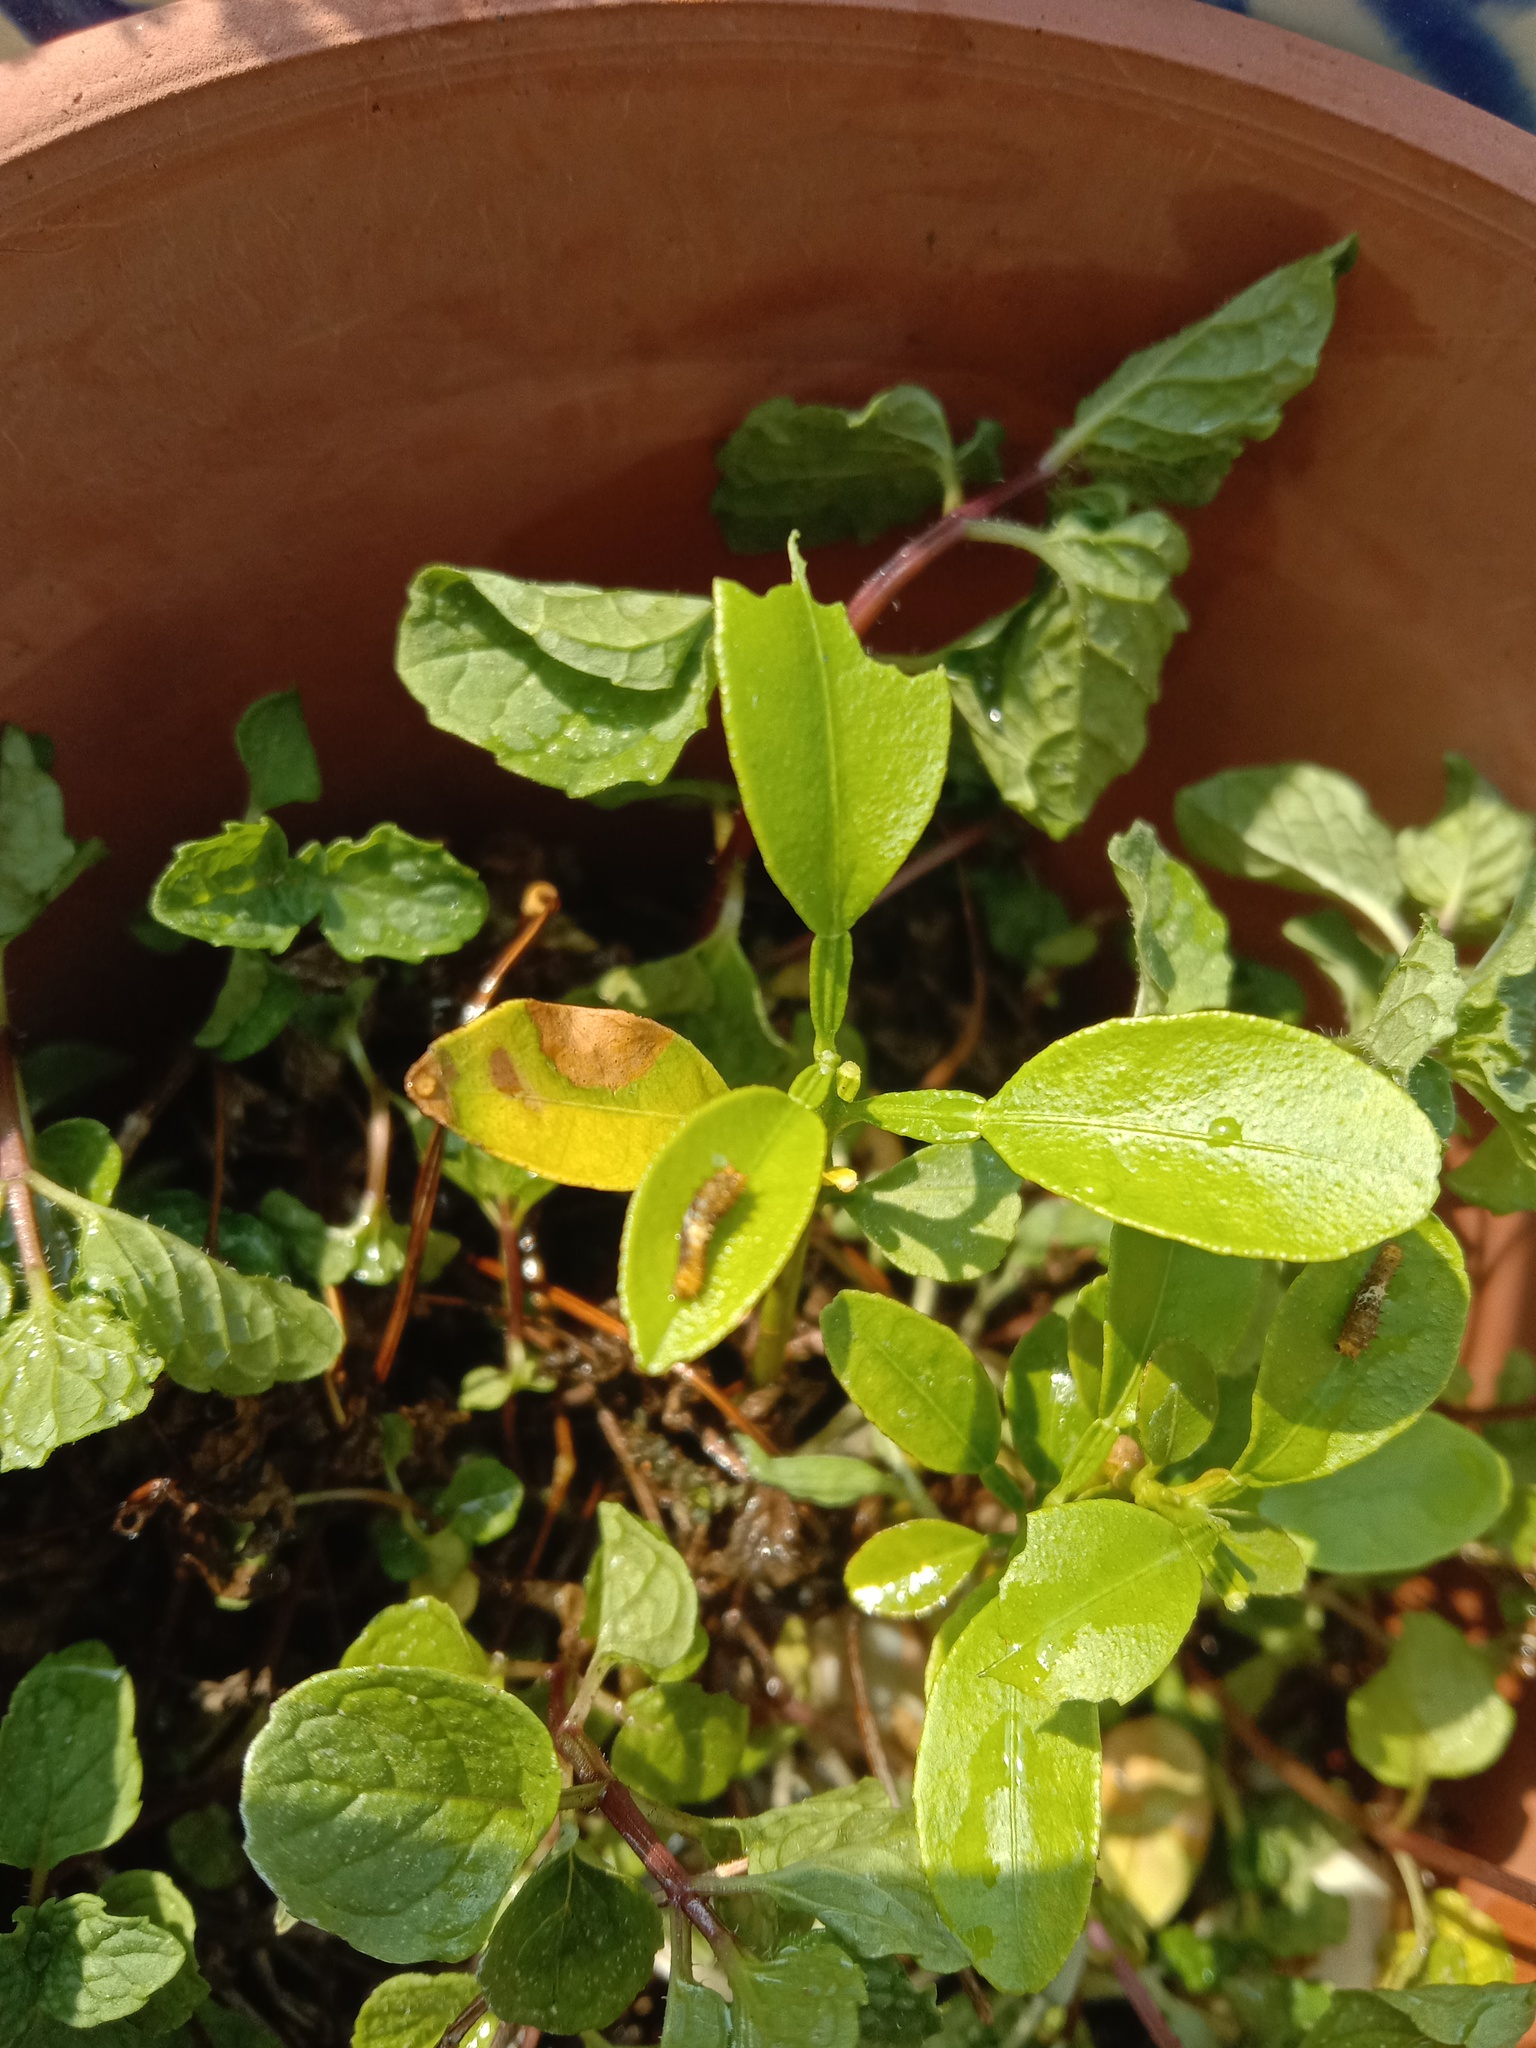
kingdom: Animalia
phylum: Arthropoda
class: Insecta
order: Lepidoptera
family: Papilionidae
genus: Papilio
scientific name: Papilio demoleus
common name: Lime butterfly
